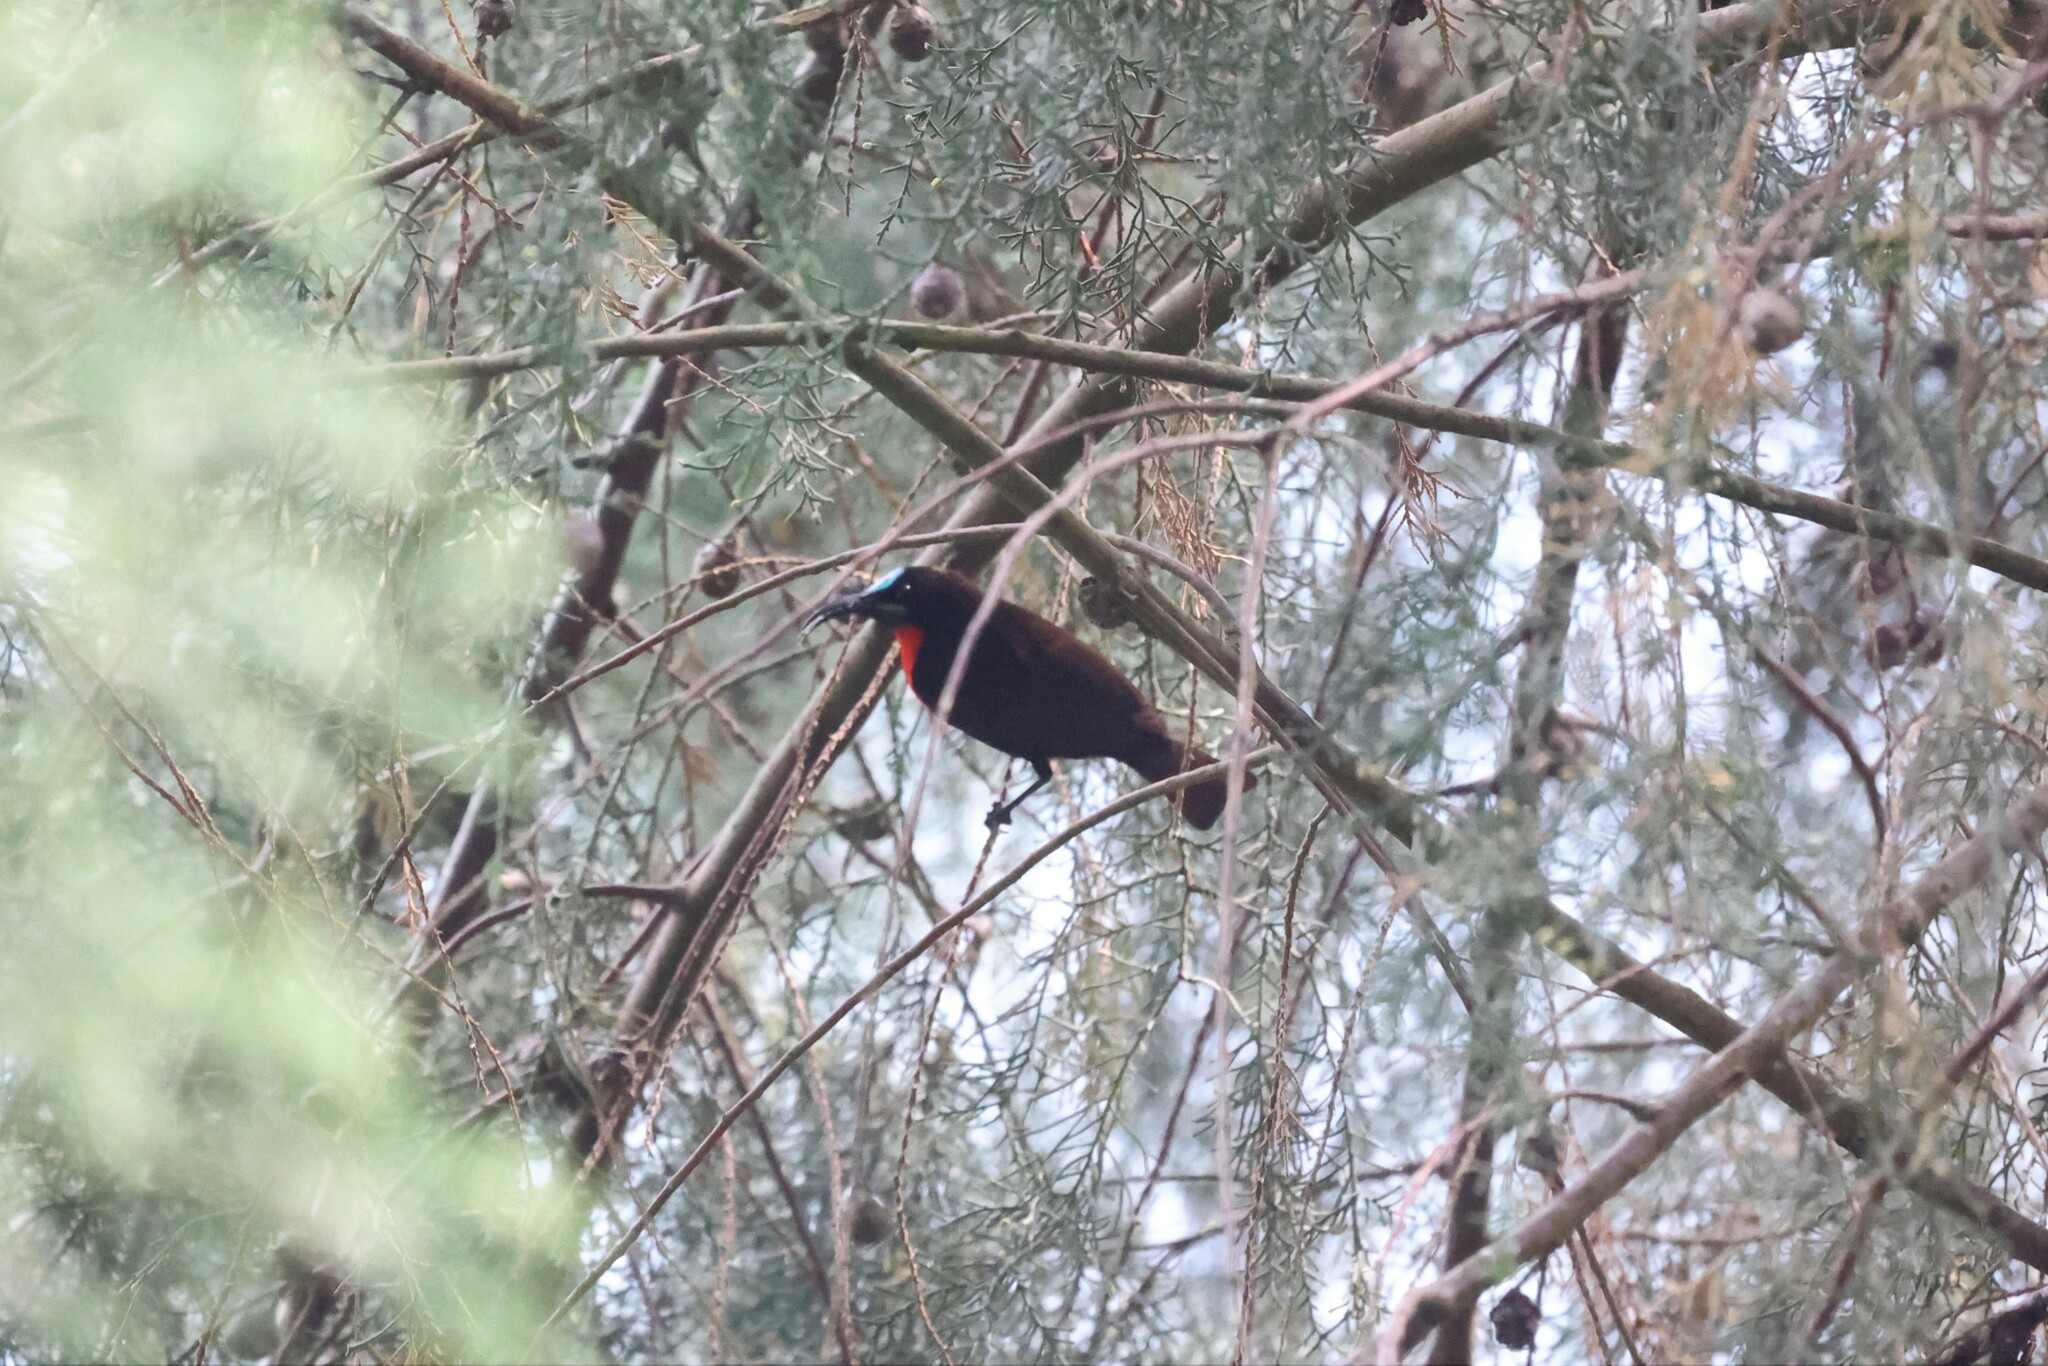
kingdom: Animalia
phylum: Chordata
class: Aves
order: Passeriformes
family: Nectariniidae
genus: Chalcomitra
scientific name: Chalcomitra senegalensis
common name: Scarlet-chested sunbird
